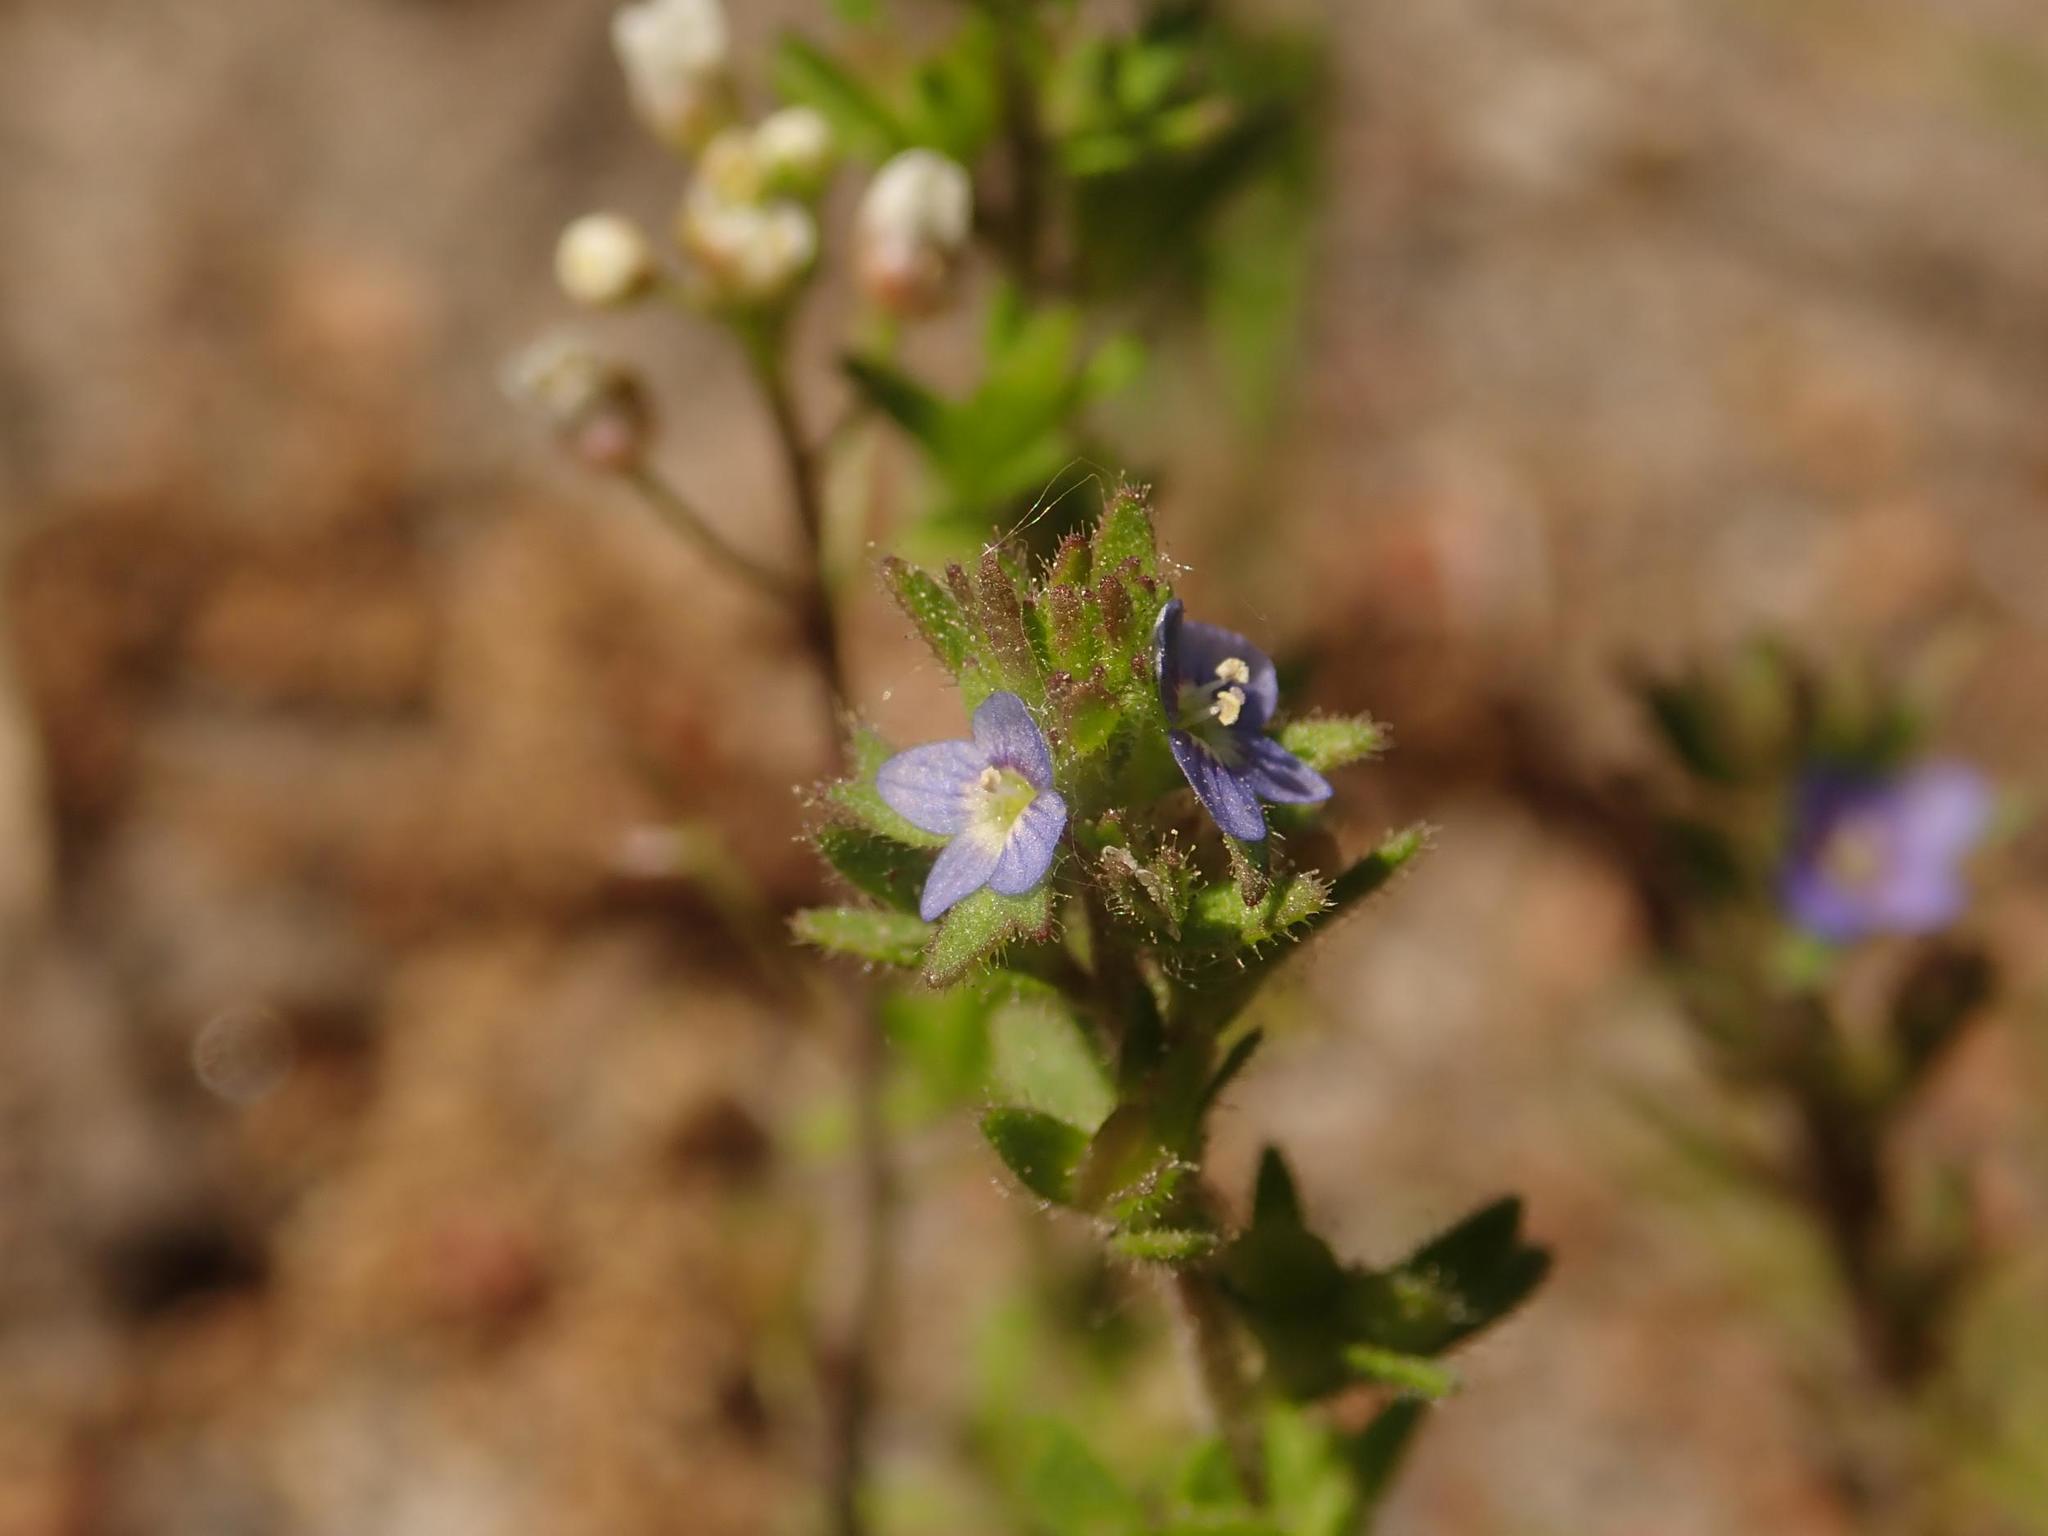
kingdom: Plantae
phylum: Tracheophyta
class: Magnoliopsida
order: Lamiales
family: Plantaginaceae
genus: Veronica
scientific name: Veronica arvensis
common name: Corn speedwell
